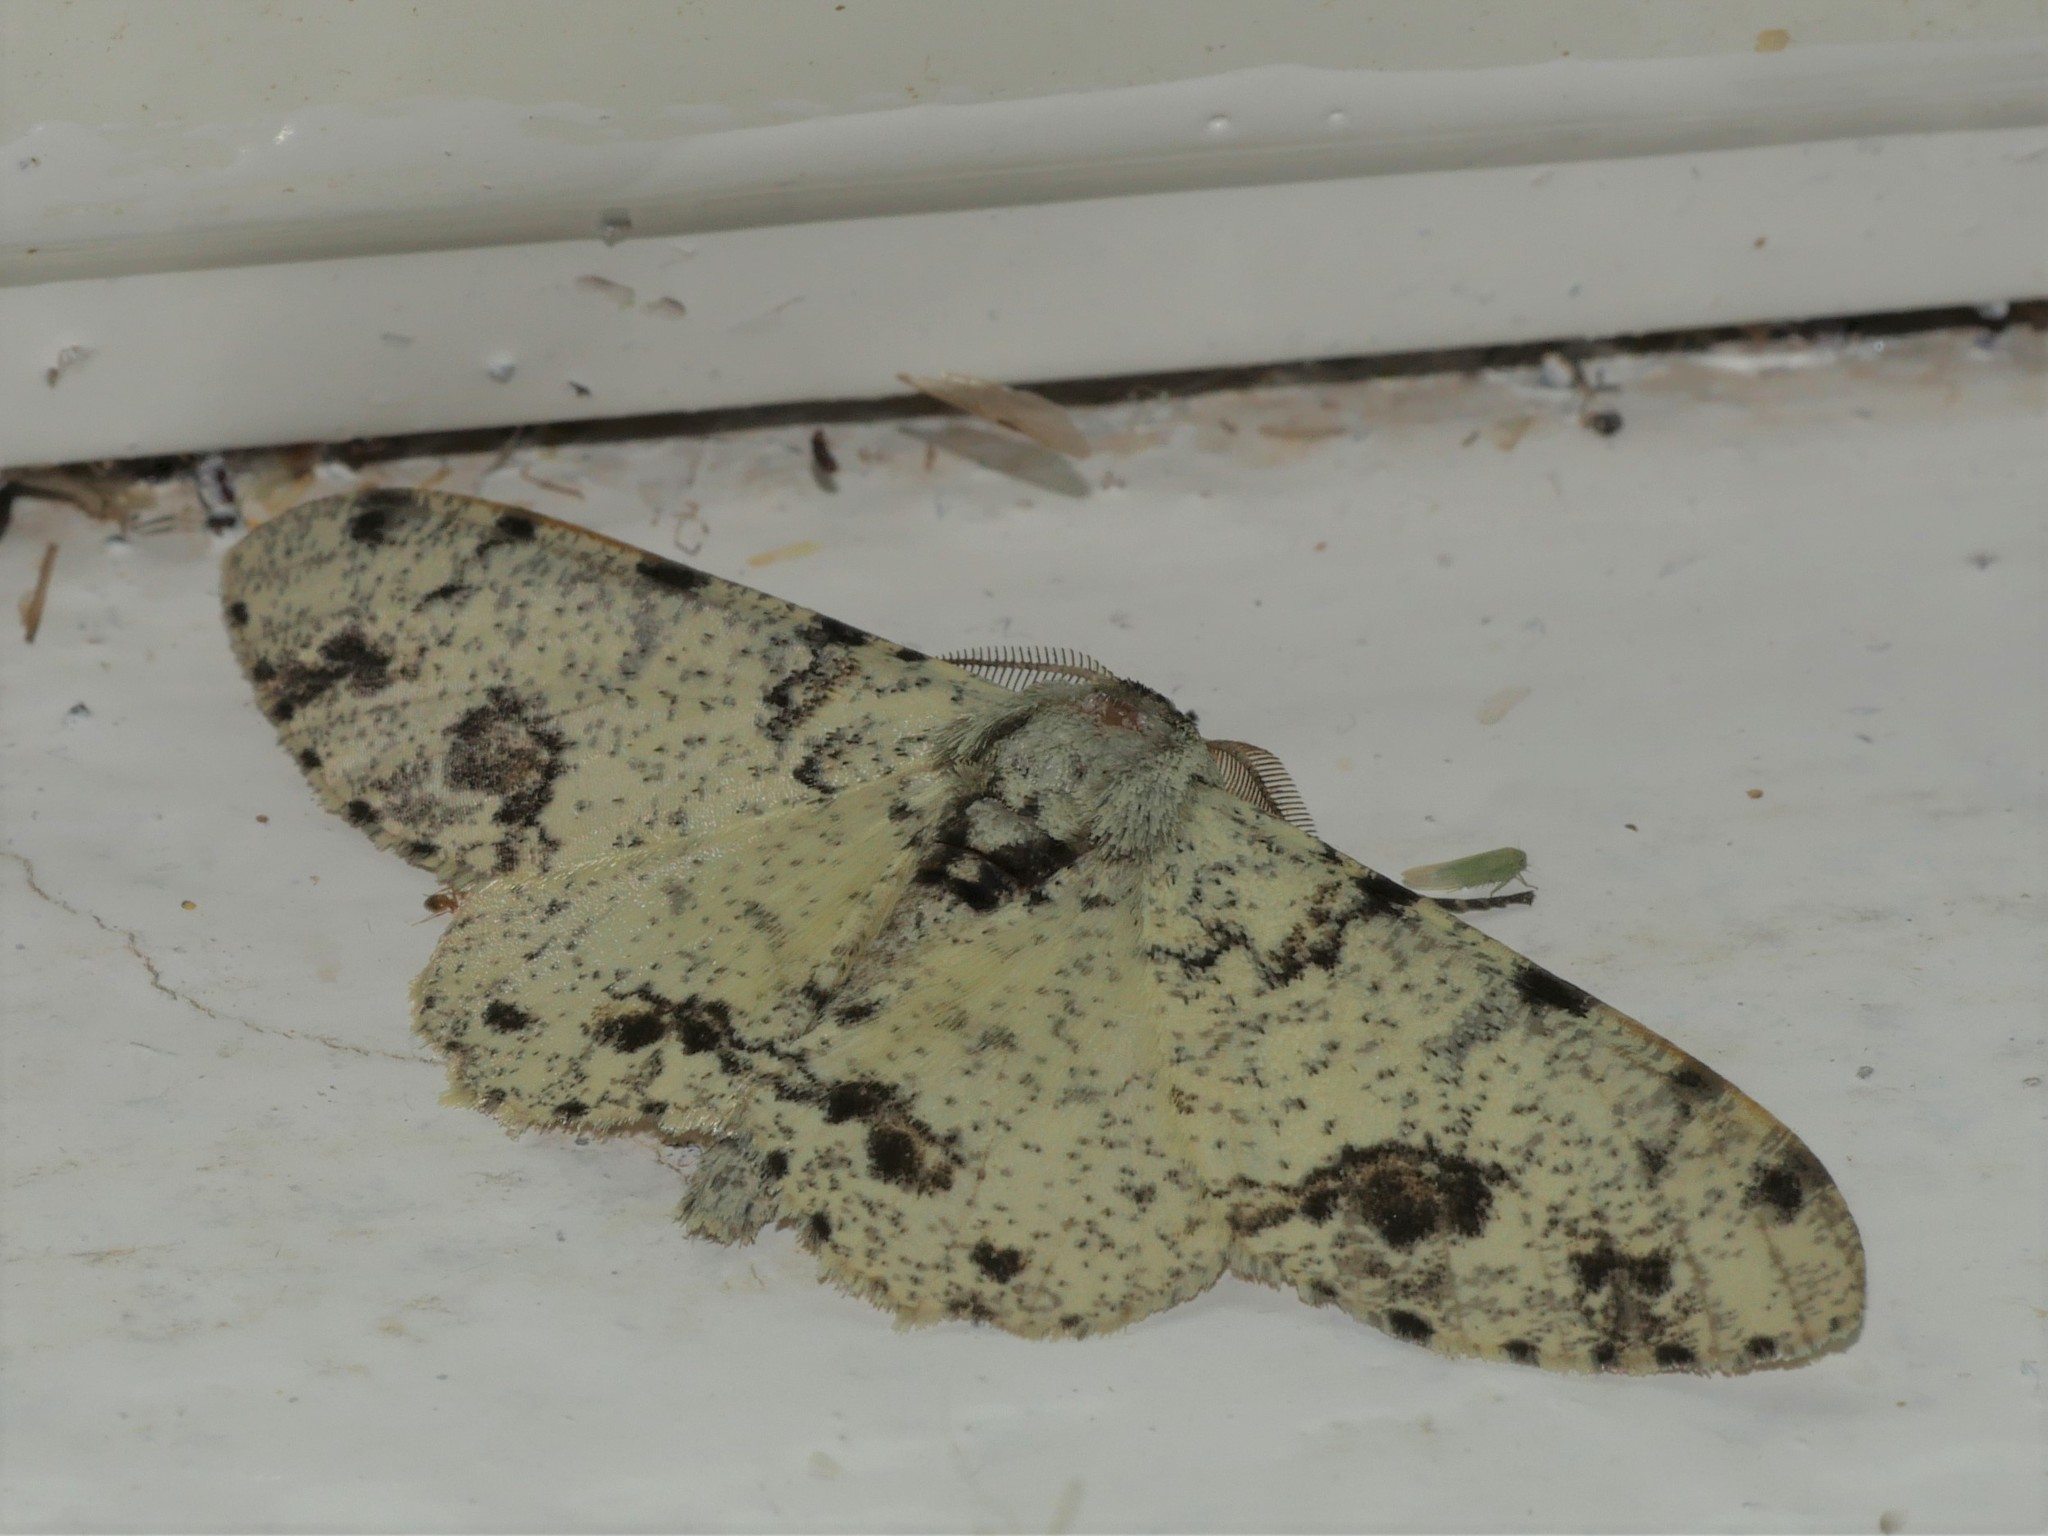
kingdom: Animalia
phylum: Arthropoda
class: Insecta
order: Lepidoptera
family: Geometridae
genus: Biston
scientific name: Biston abruptaria
